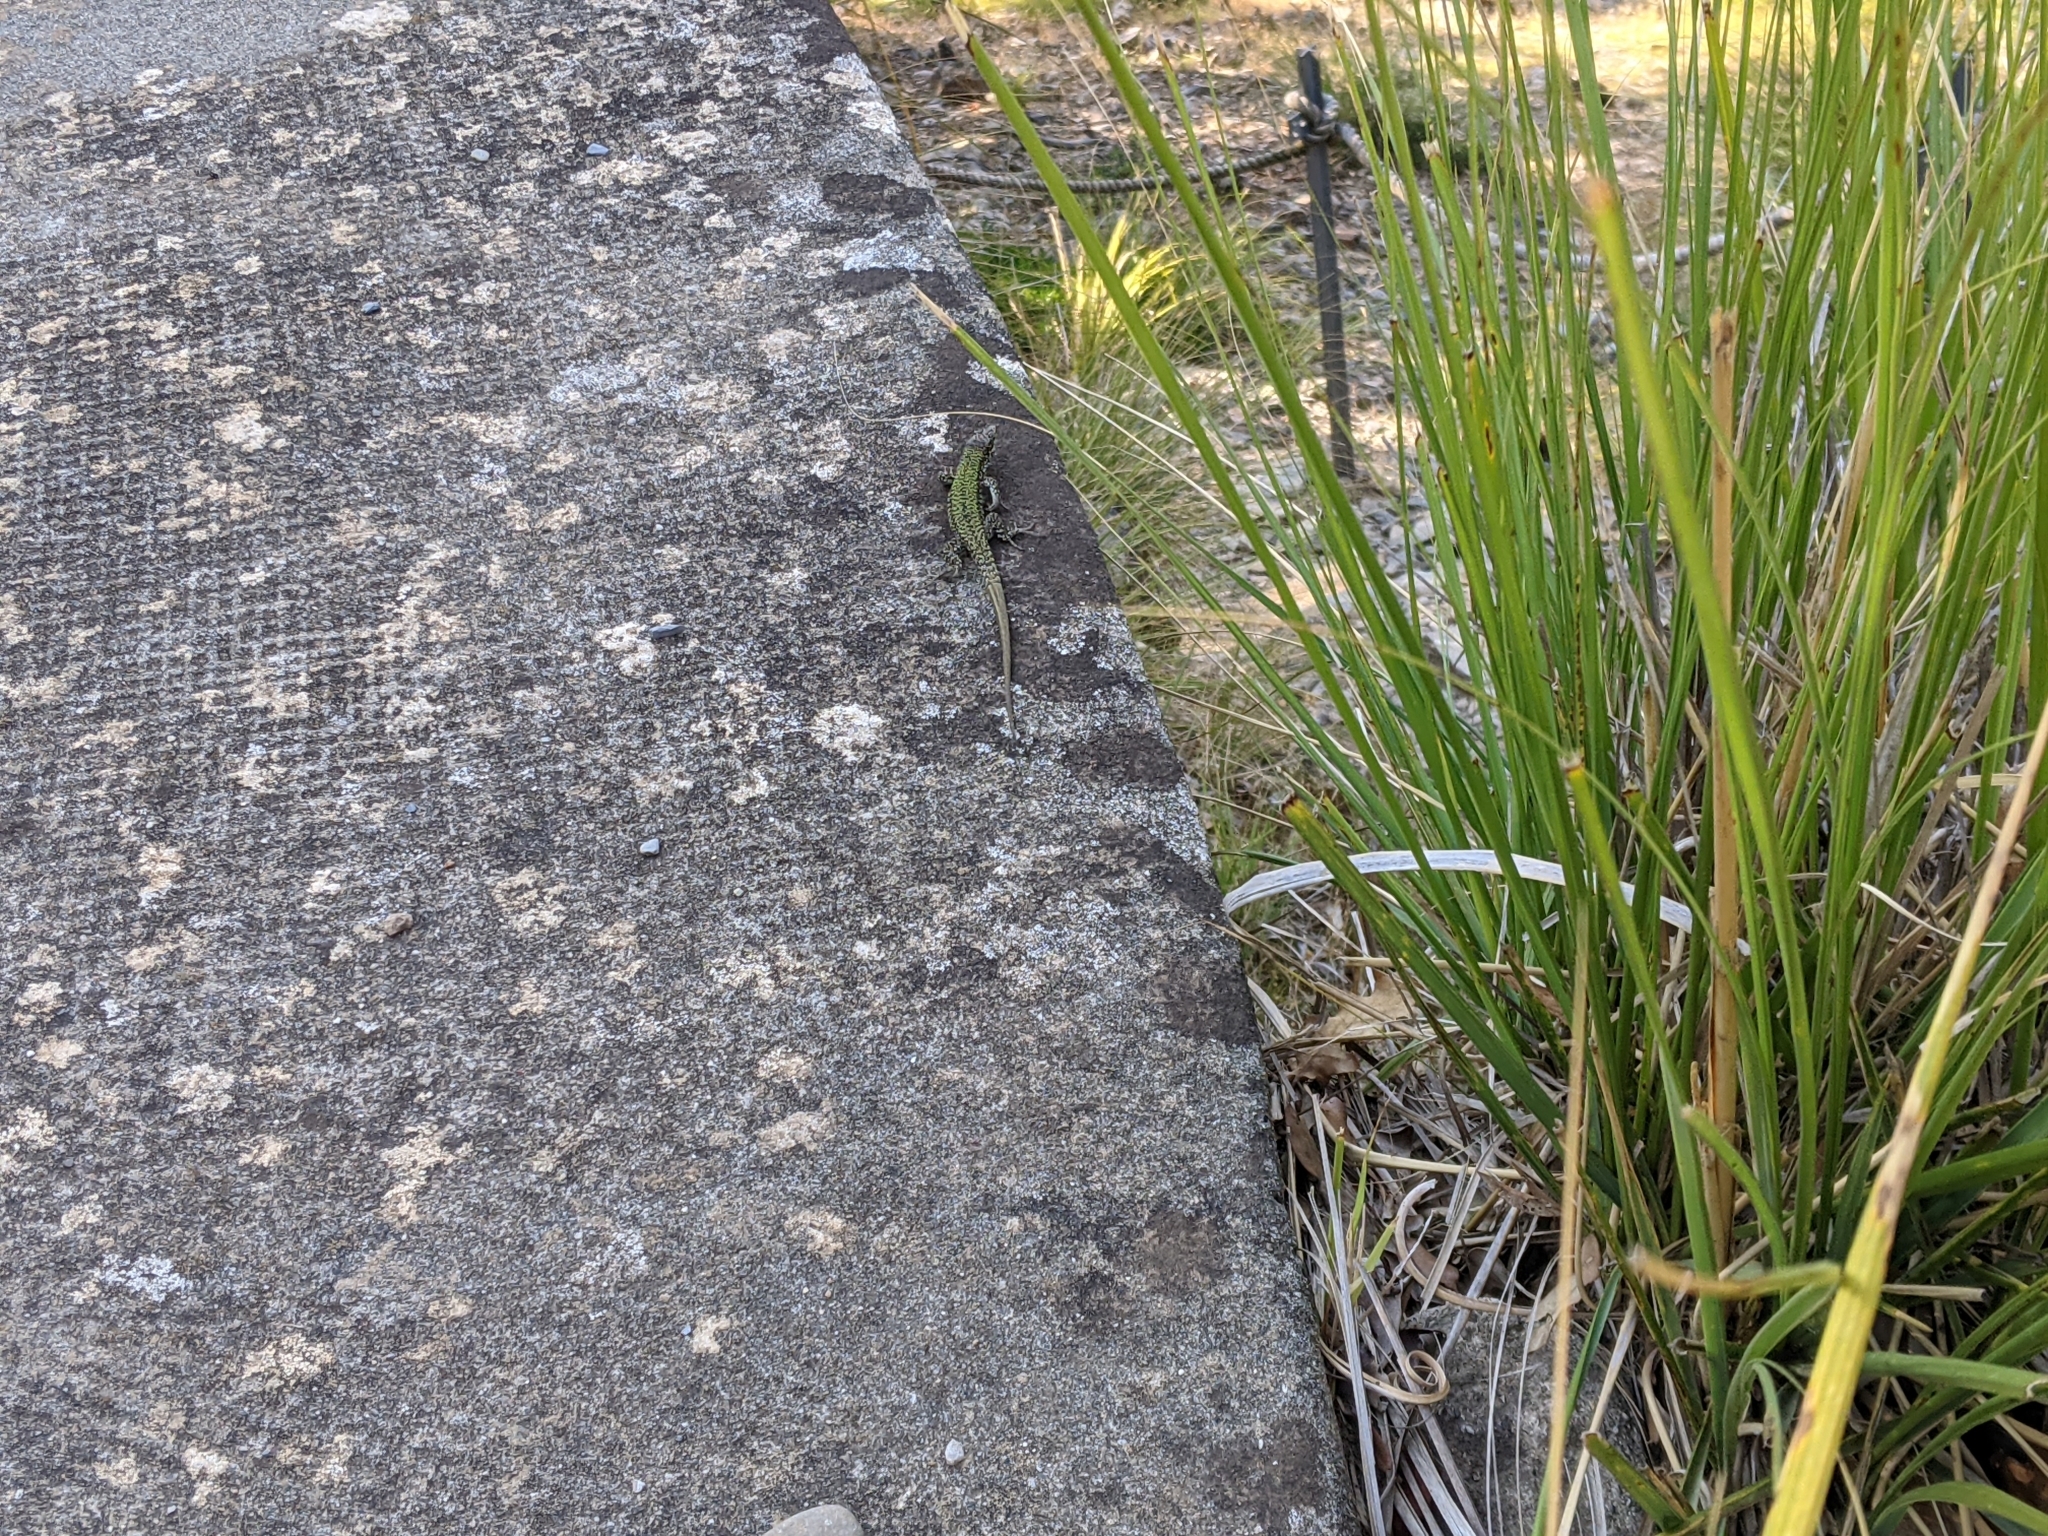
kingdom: Animalia
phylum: Chordata
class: Squamata
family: Lacertidae
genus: Podarcis
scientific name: Podarcis muralis
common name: Common wall lizard
